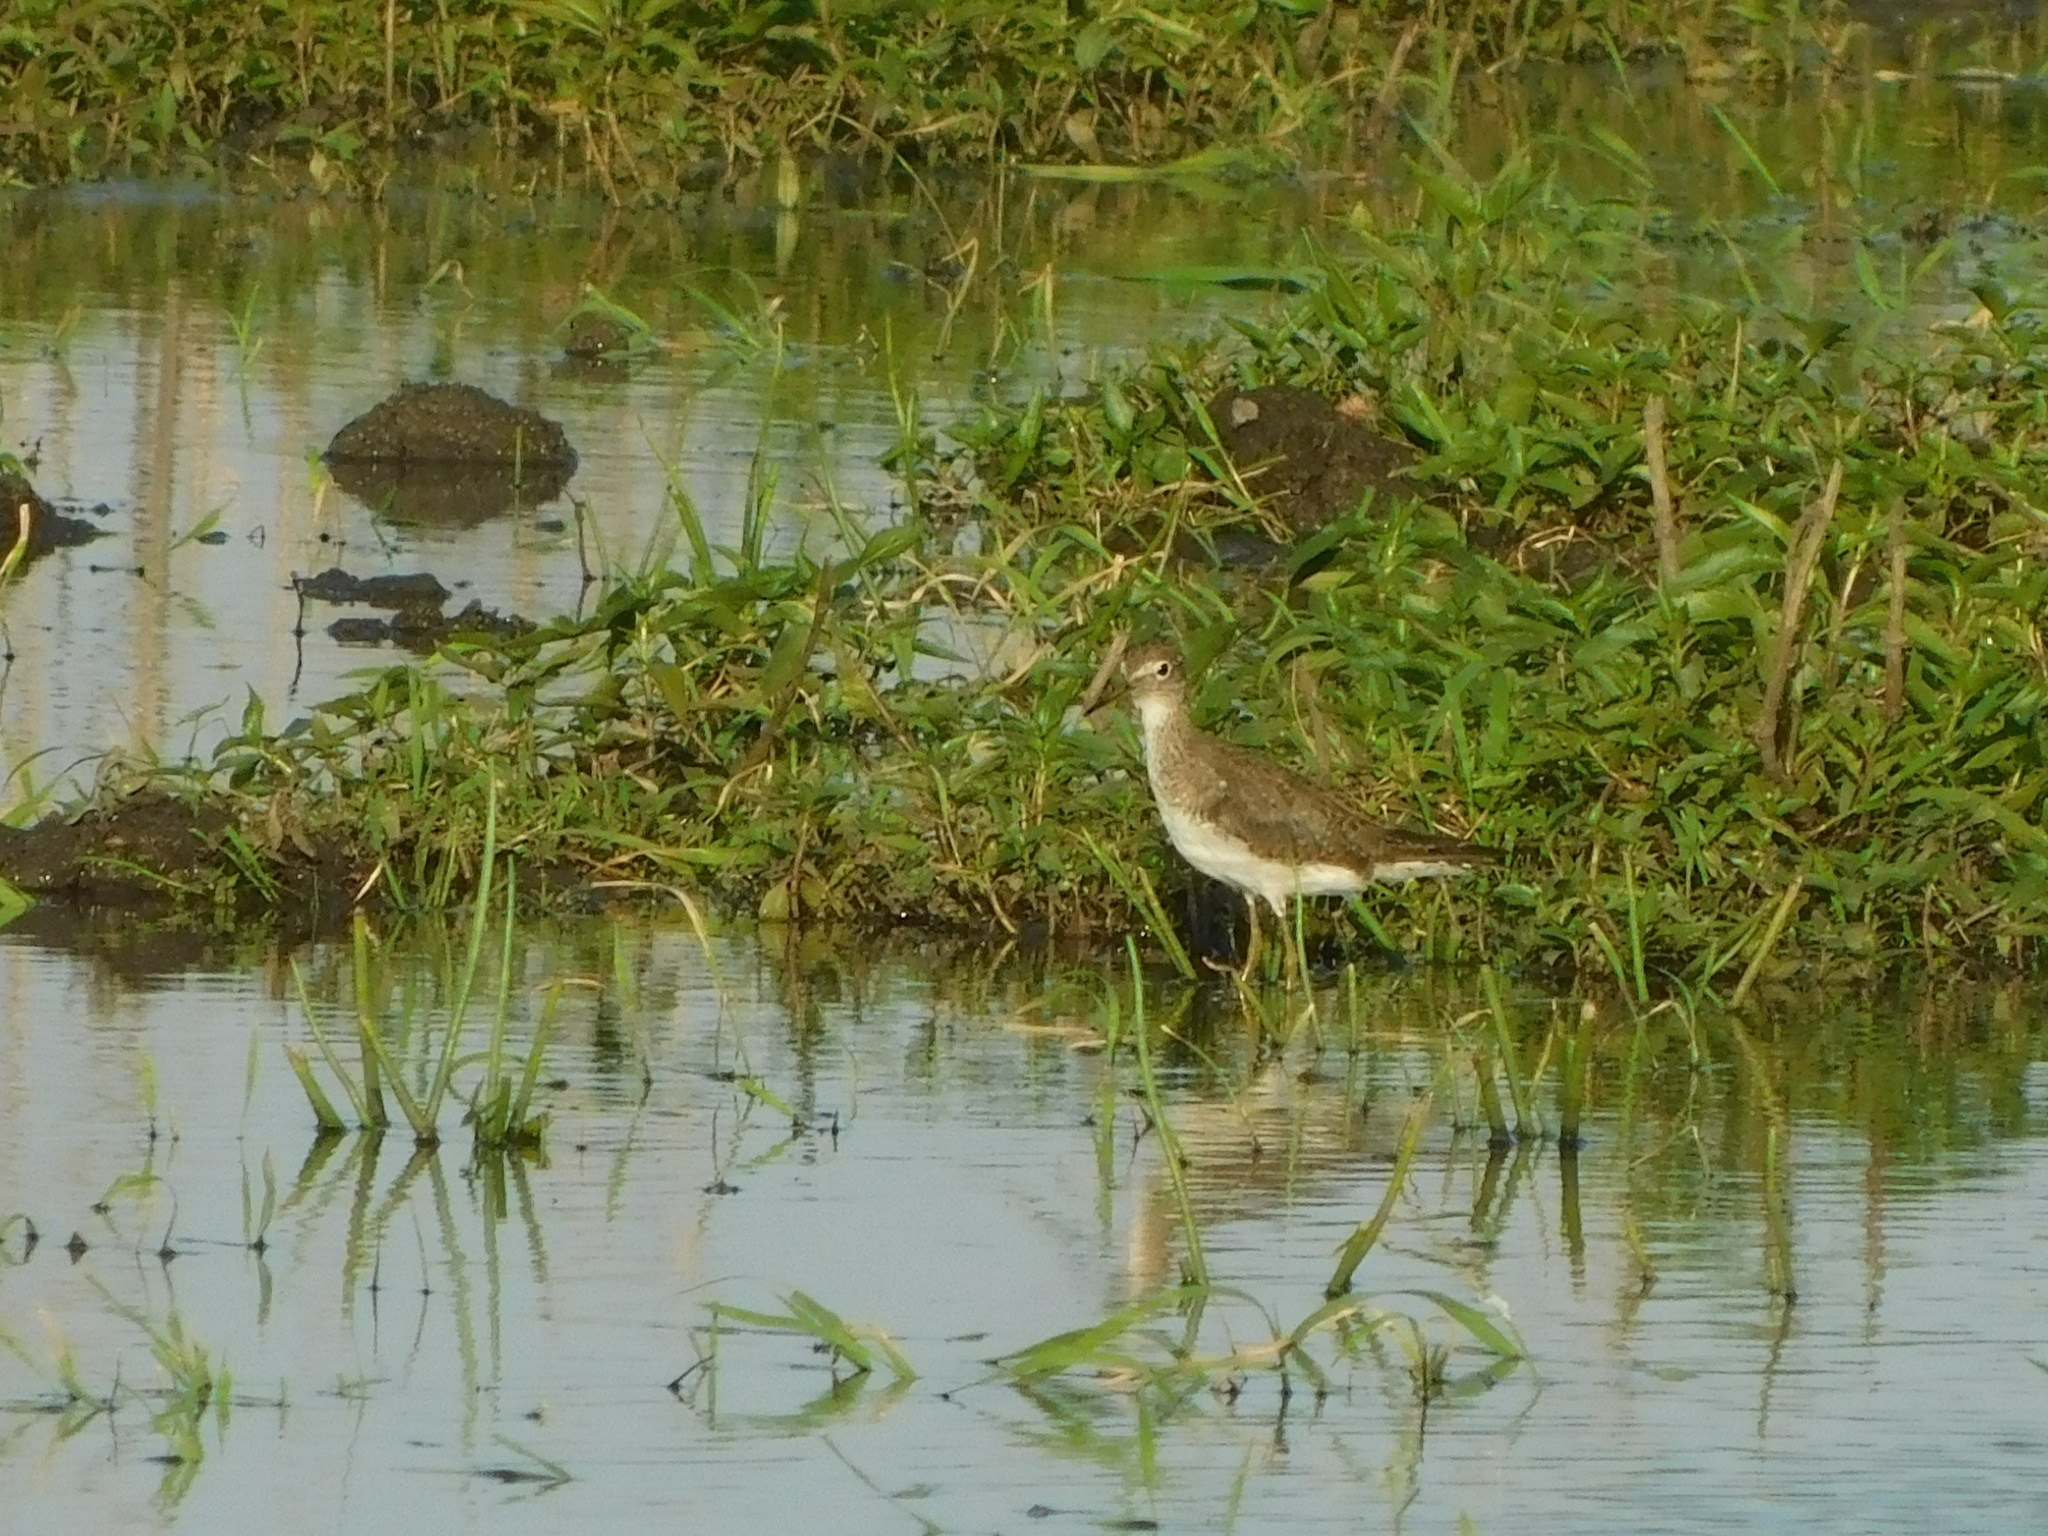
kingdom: Animalia
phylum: Chordata
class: Aves
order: Charadriiformes
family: Scolopacidae
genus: Tringa
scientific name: Tringa solitaria
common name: Solitary sandpiper
